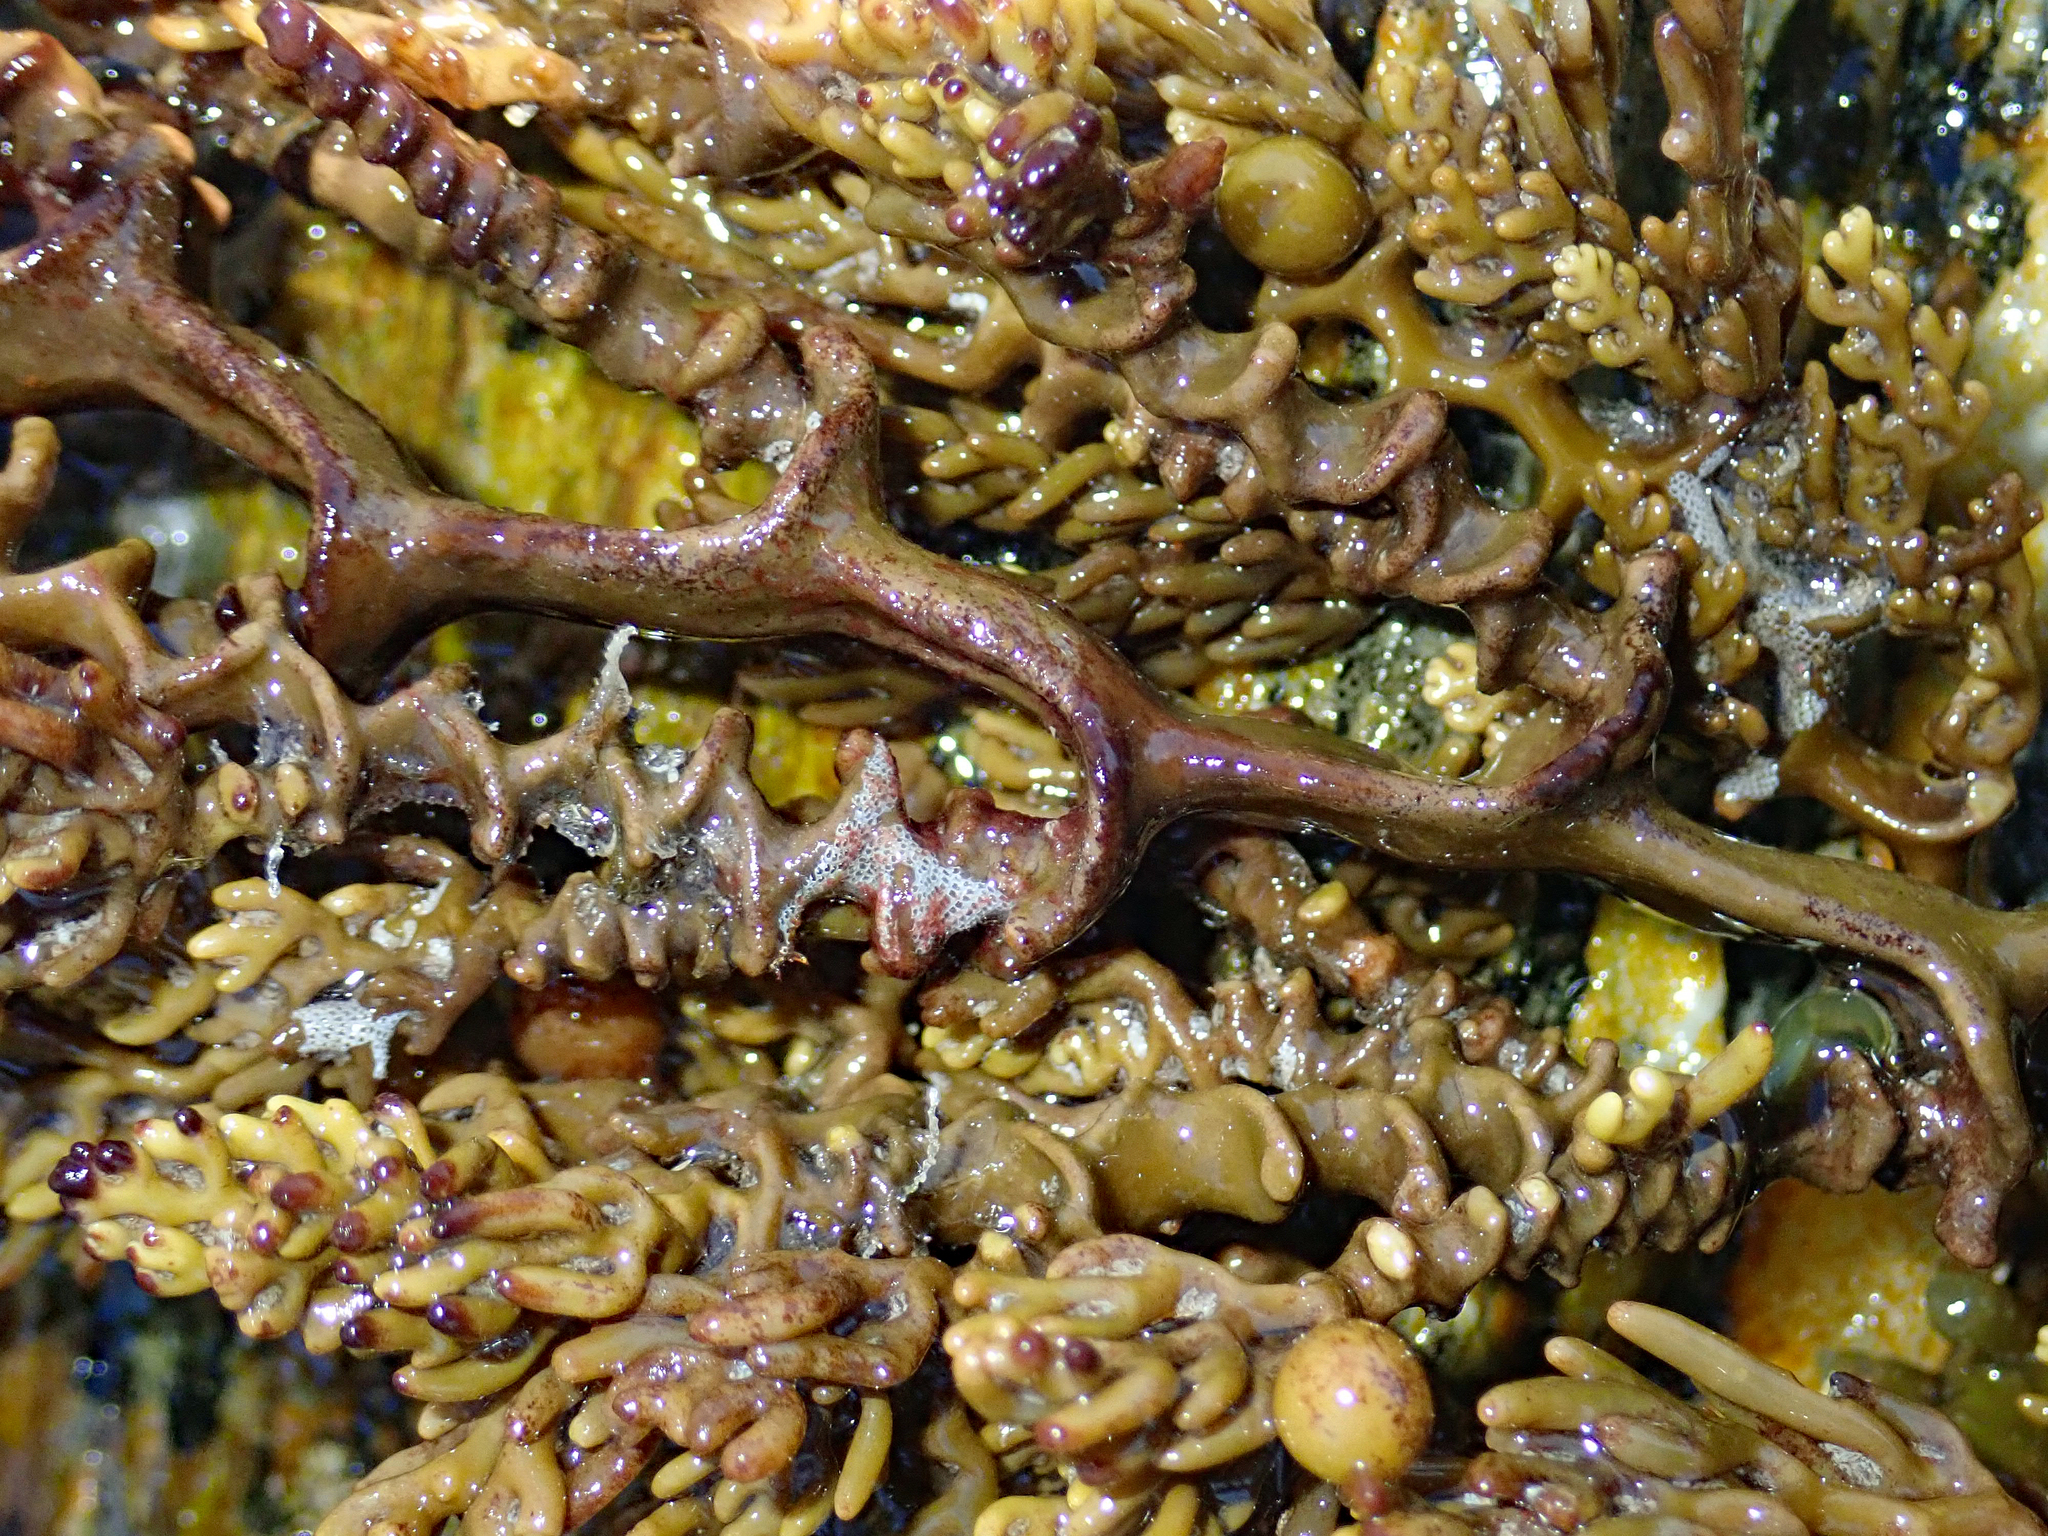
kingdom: Chromista
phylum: Ochrophyta
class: Phaeophyceae
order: Fucales
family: Sargassaceae
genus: Cystophora
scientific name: Cystophora scalaris
